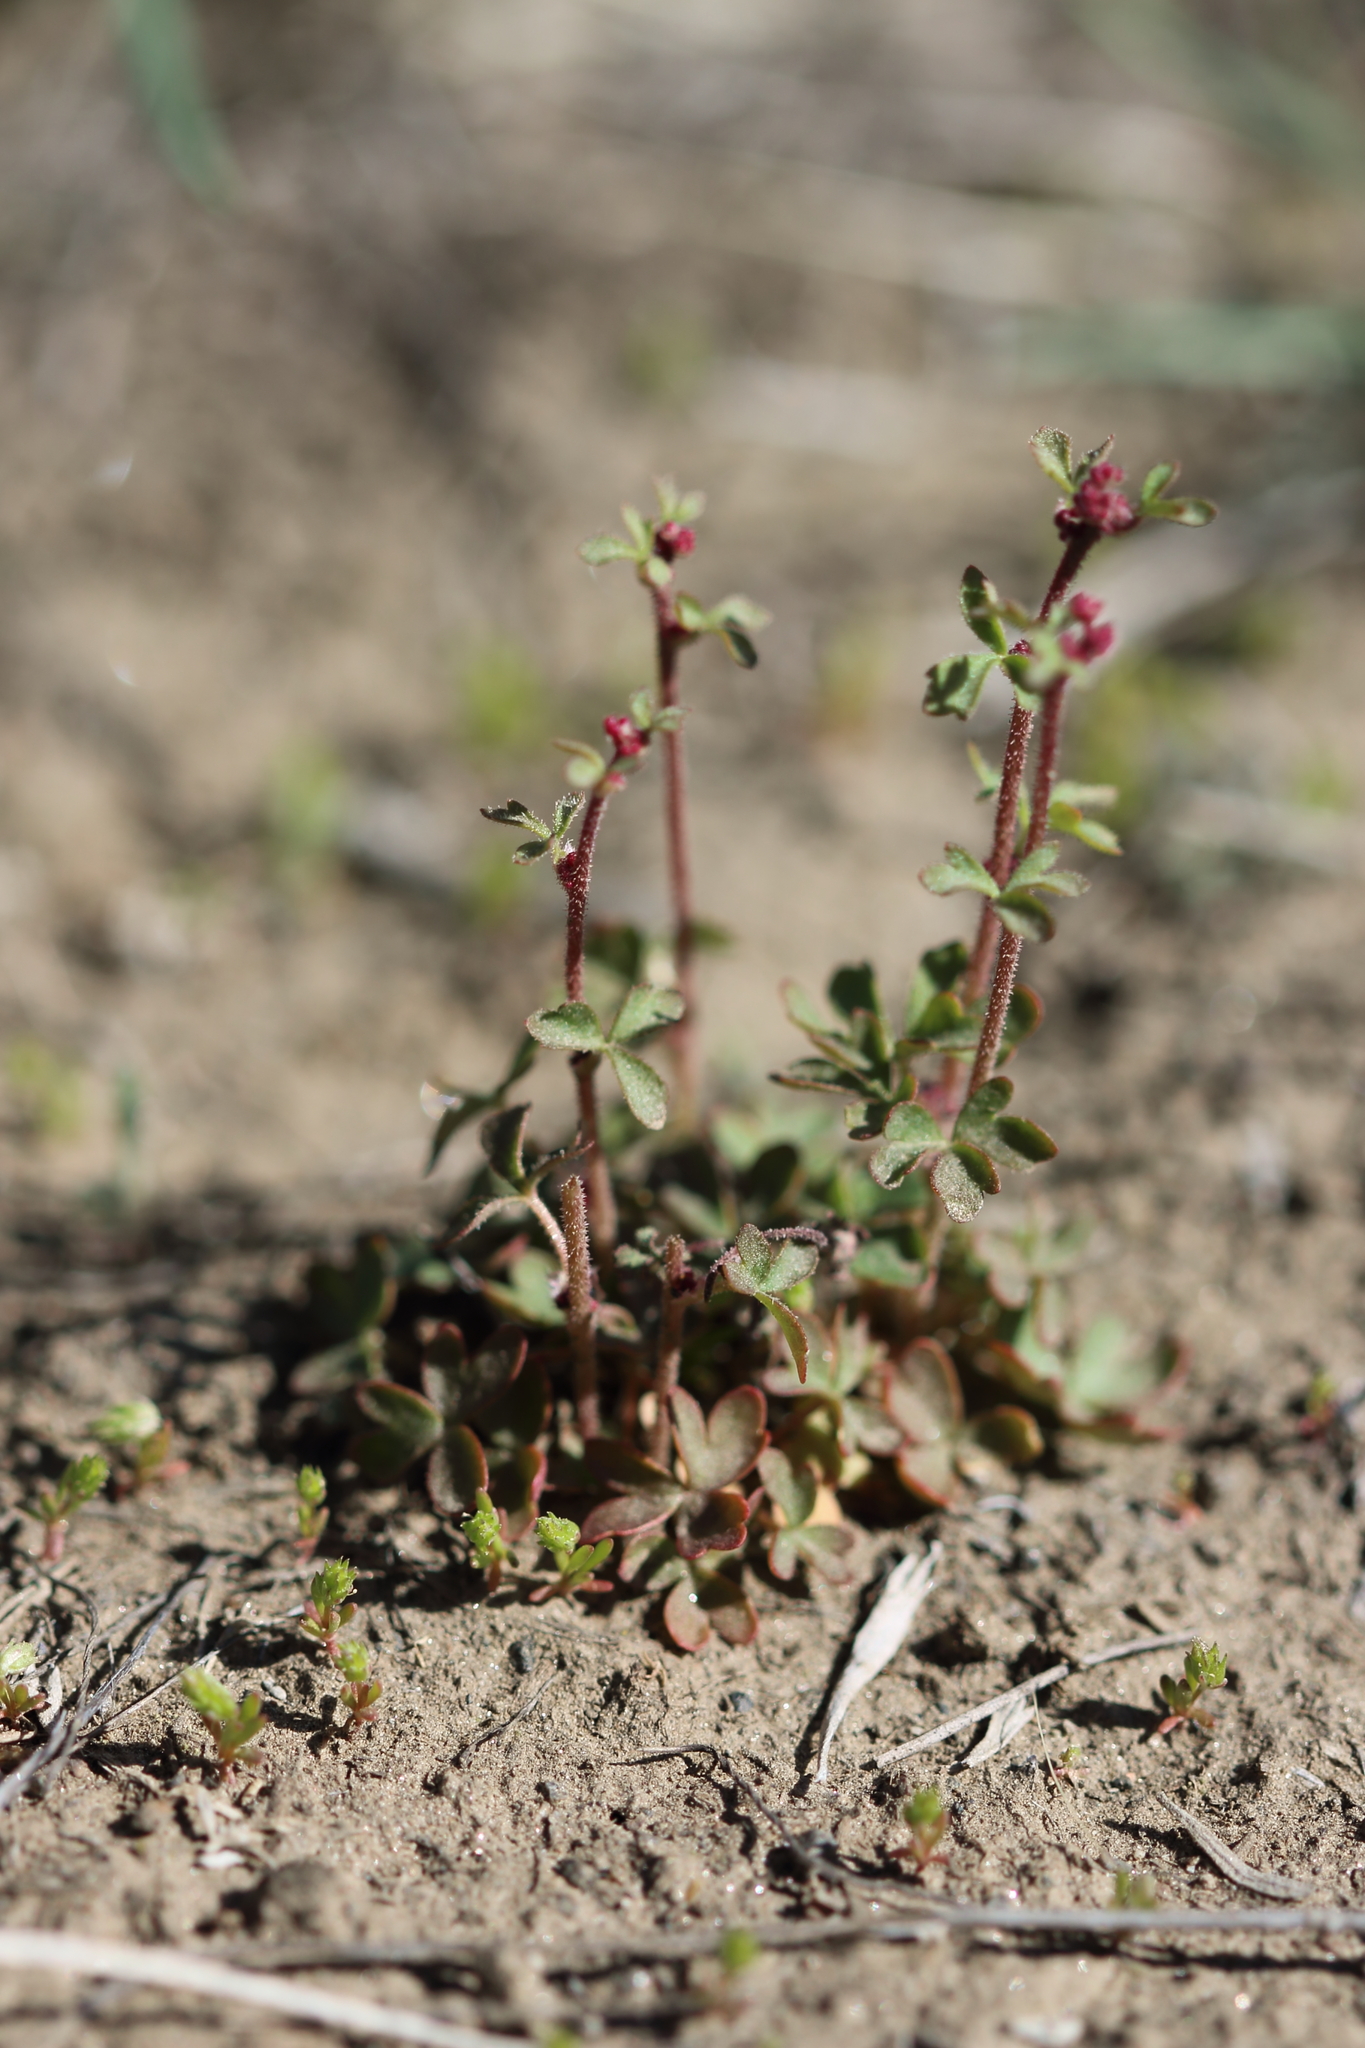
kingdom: Plantae
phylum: Tracheophyta
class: Magnoliopsida
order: Saxifragales
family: Saxifragaceae
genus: Lithophragma
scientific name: Lithophragma glabrum
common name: Bulbous prairie-star
